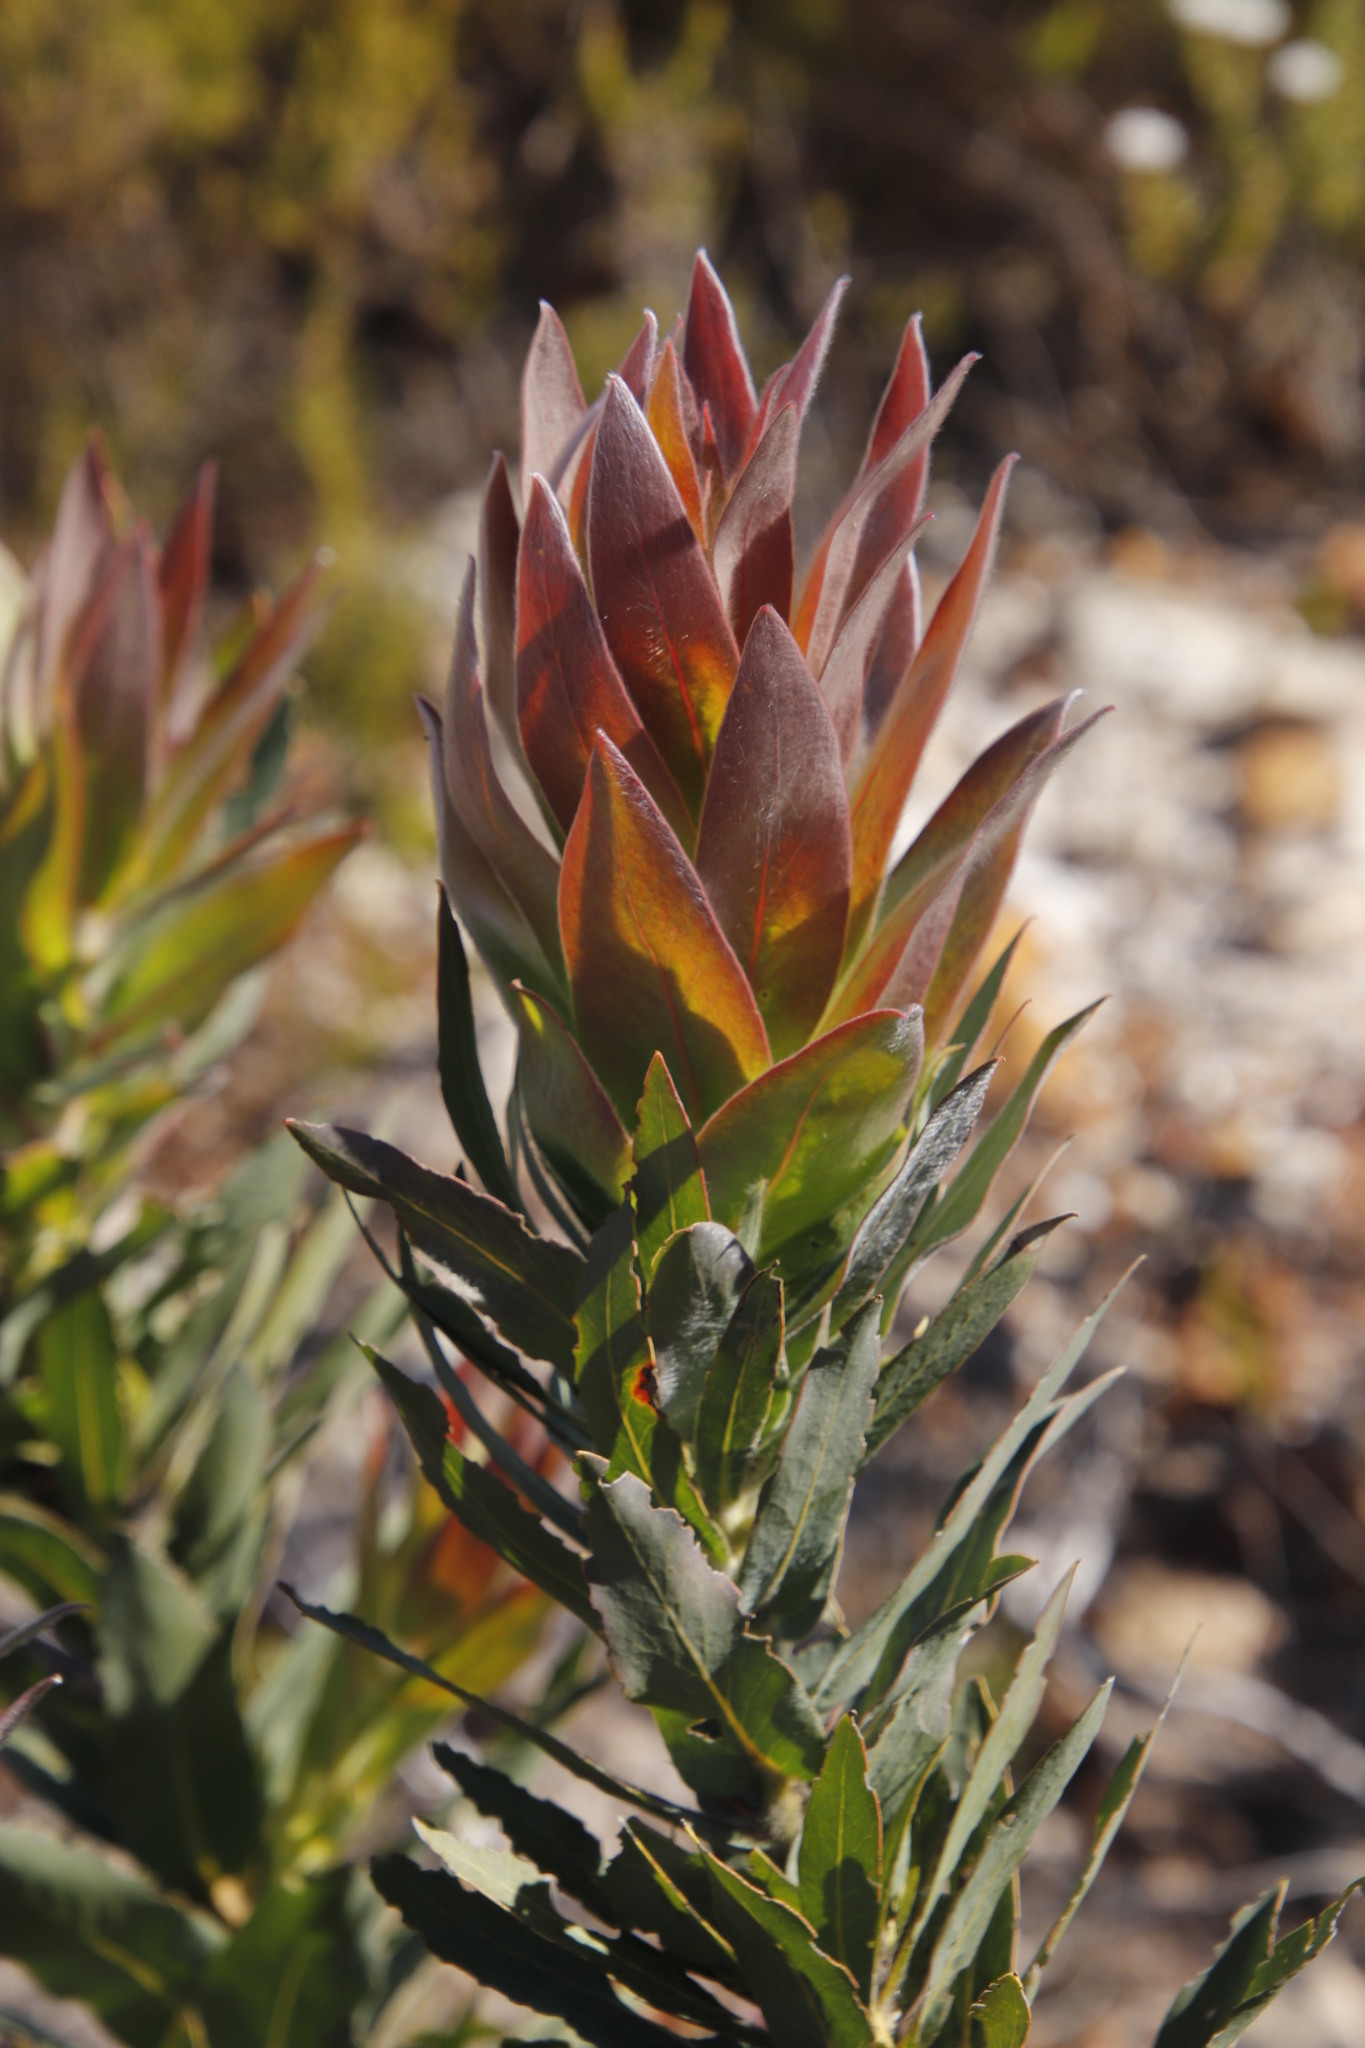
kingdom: Plantae
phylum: Tracheophyta
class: Magnoliopsida
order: Proteales
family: Proteaceae
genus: Protea
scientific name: Protea coronata
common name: Green sugarbush
